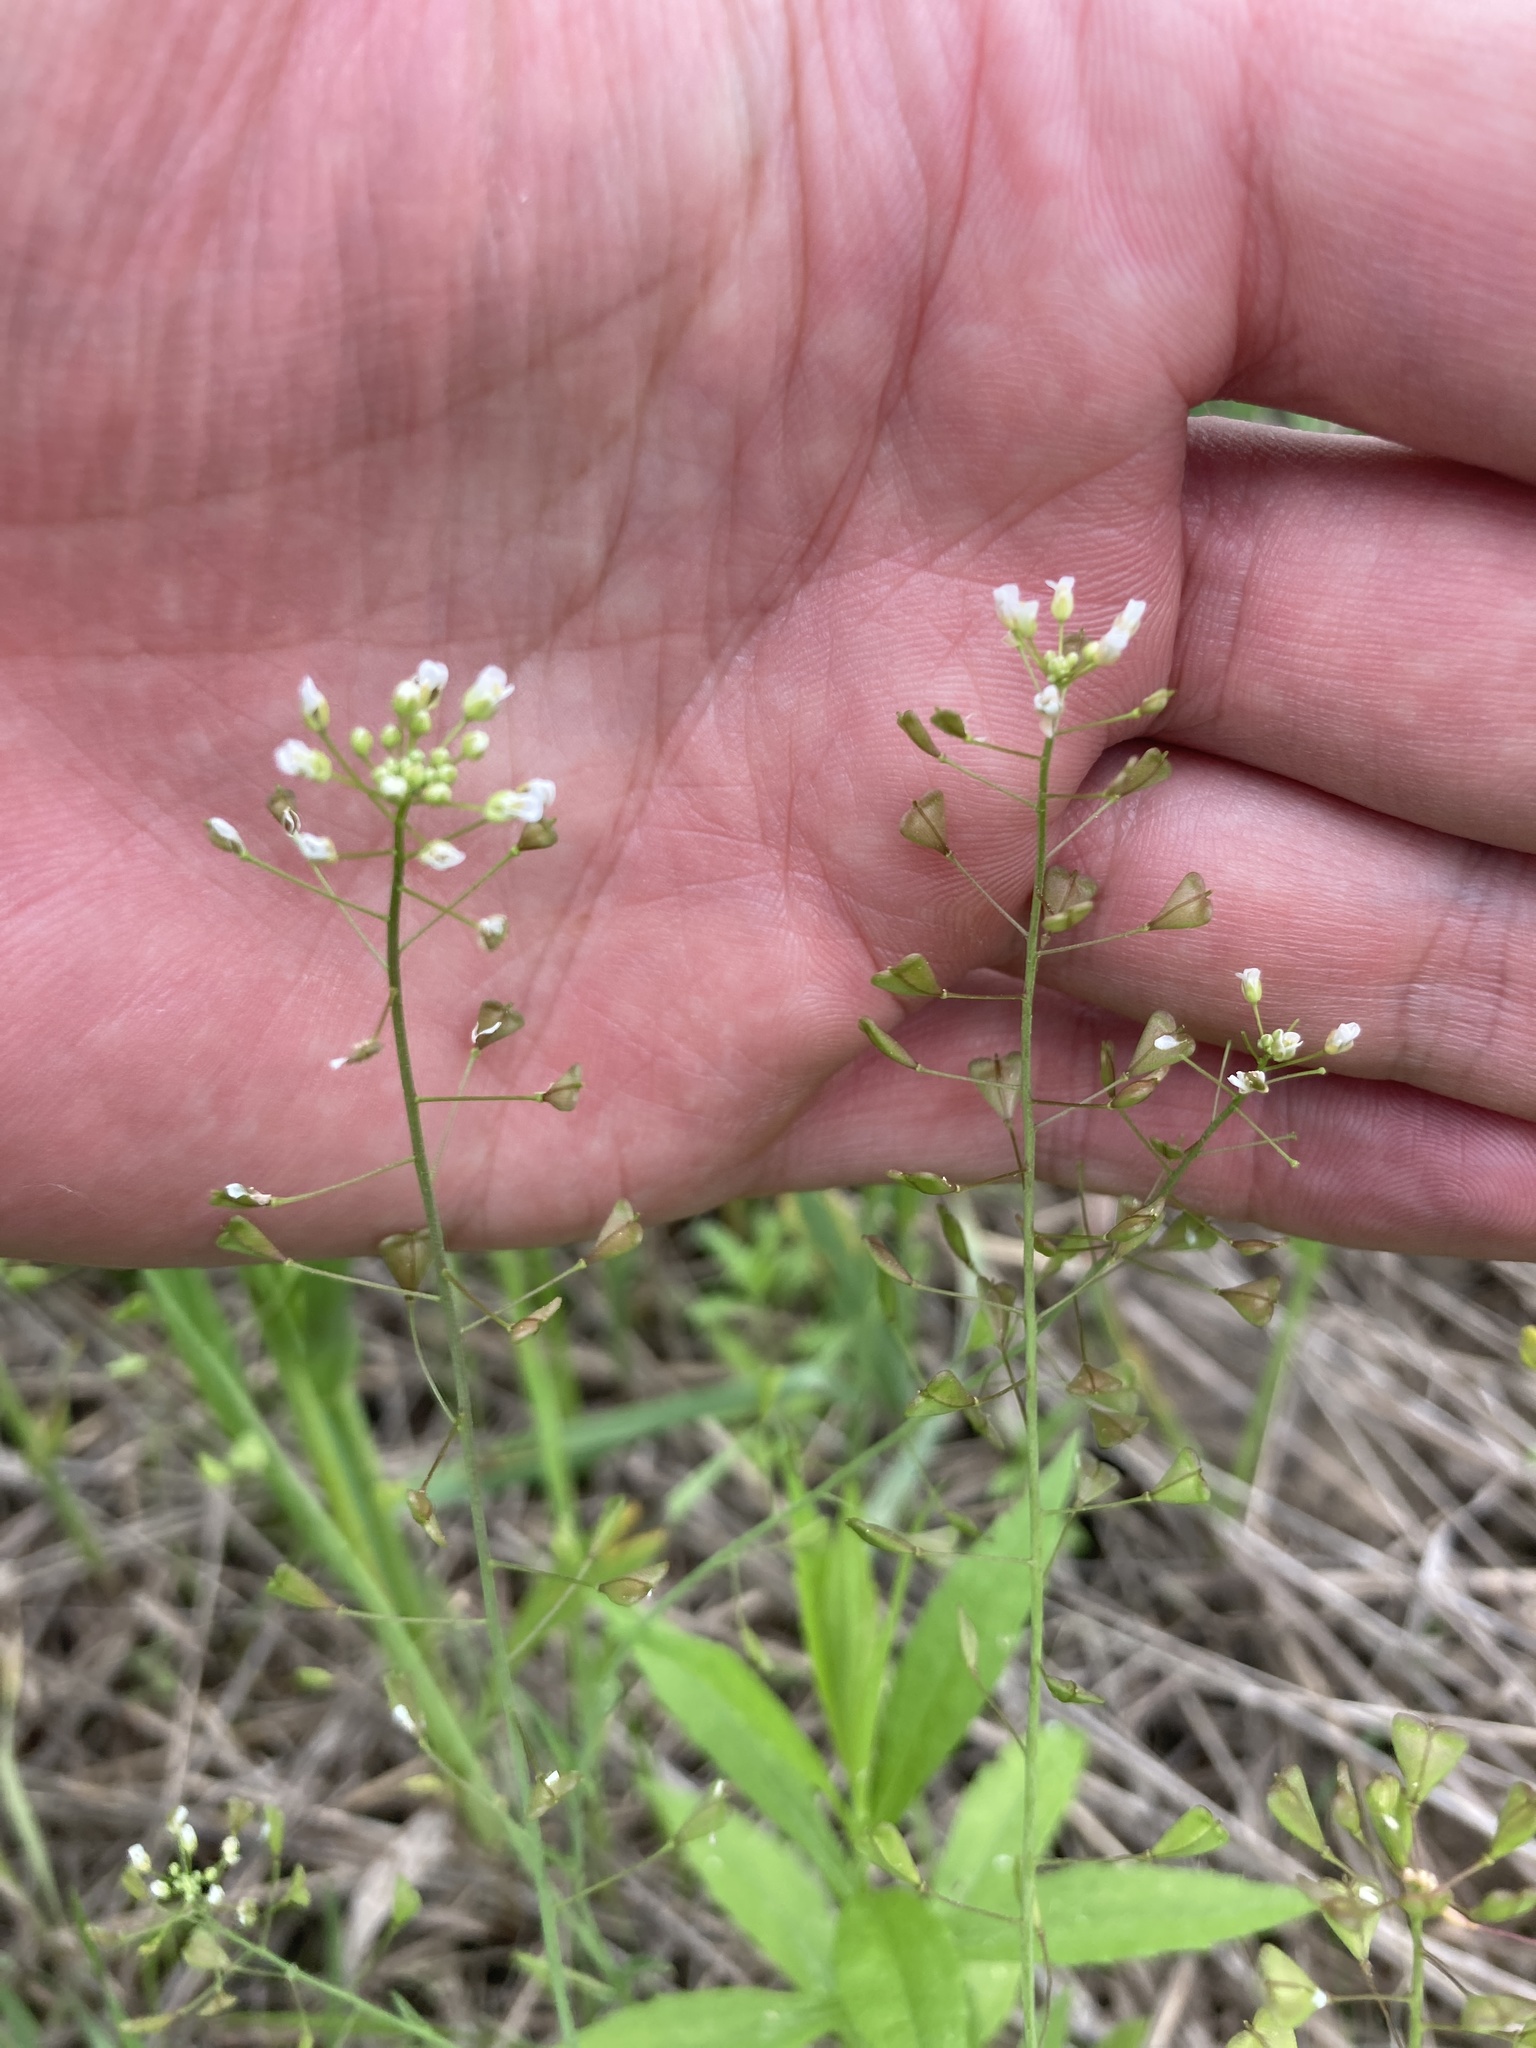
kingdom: Plantae
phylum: Tracheophyta
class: Magnoliopsida
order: Brassicales
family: Brassicaceae
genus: Capsella
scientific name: Capsella bursa-pastoris
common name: Shepherd's purse
